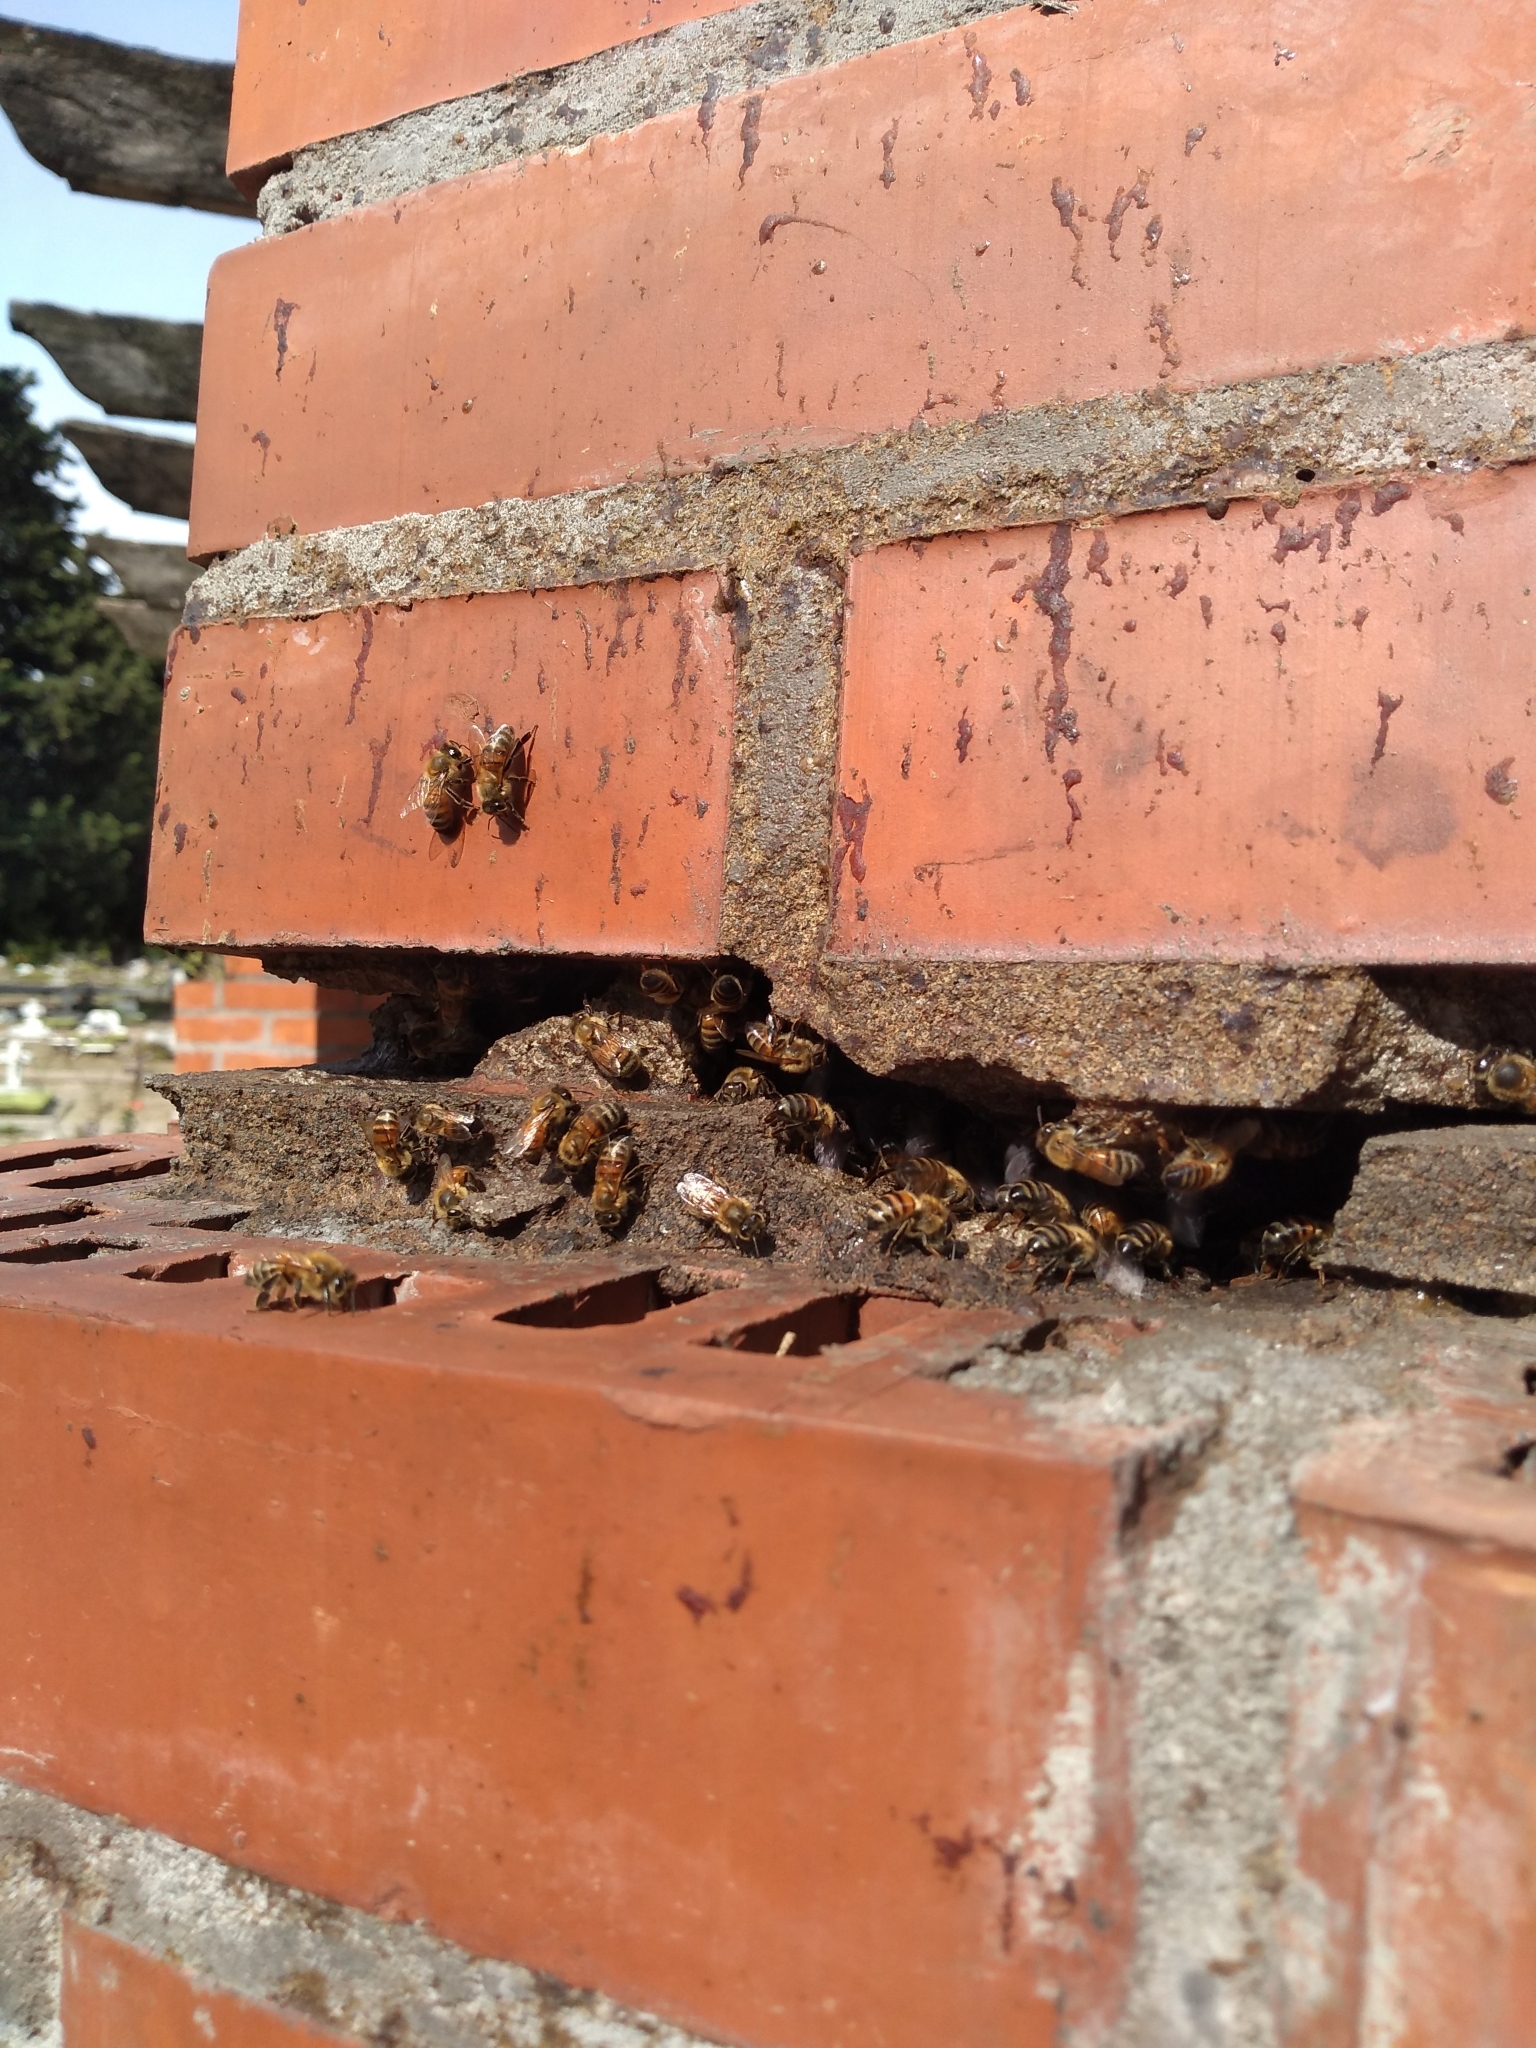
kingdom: Animalia
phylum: Arthropoda
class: Insecta
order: Hymenoptera
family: Apidae
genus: Apis
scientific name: Apis mellifera
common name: Honey bee
